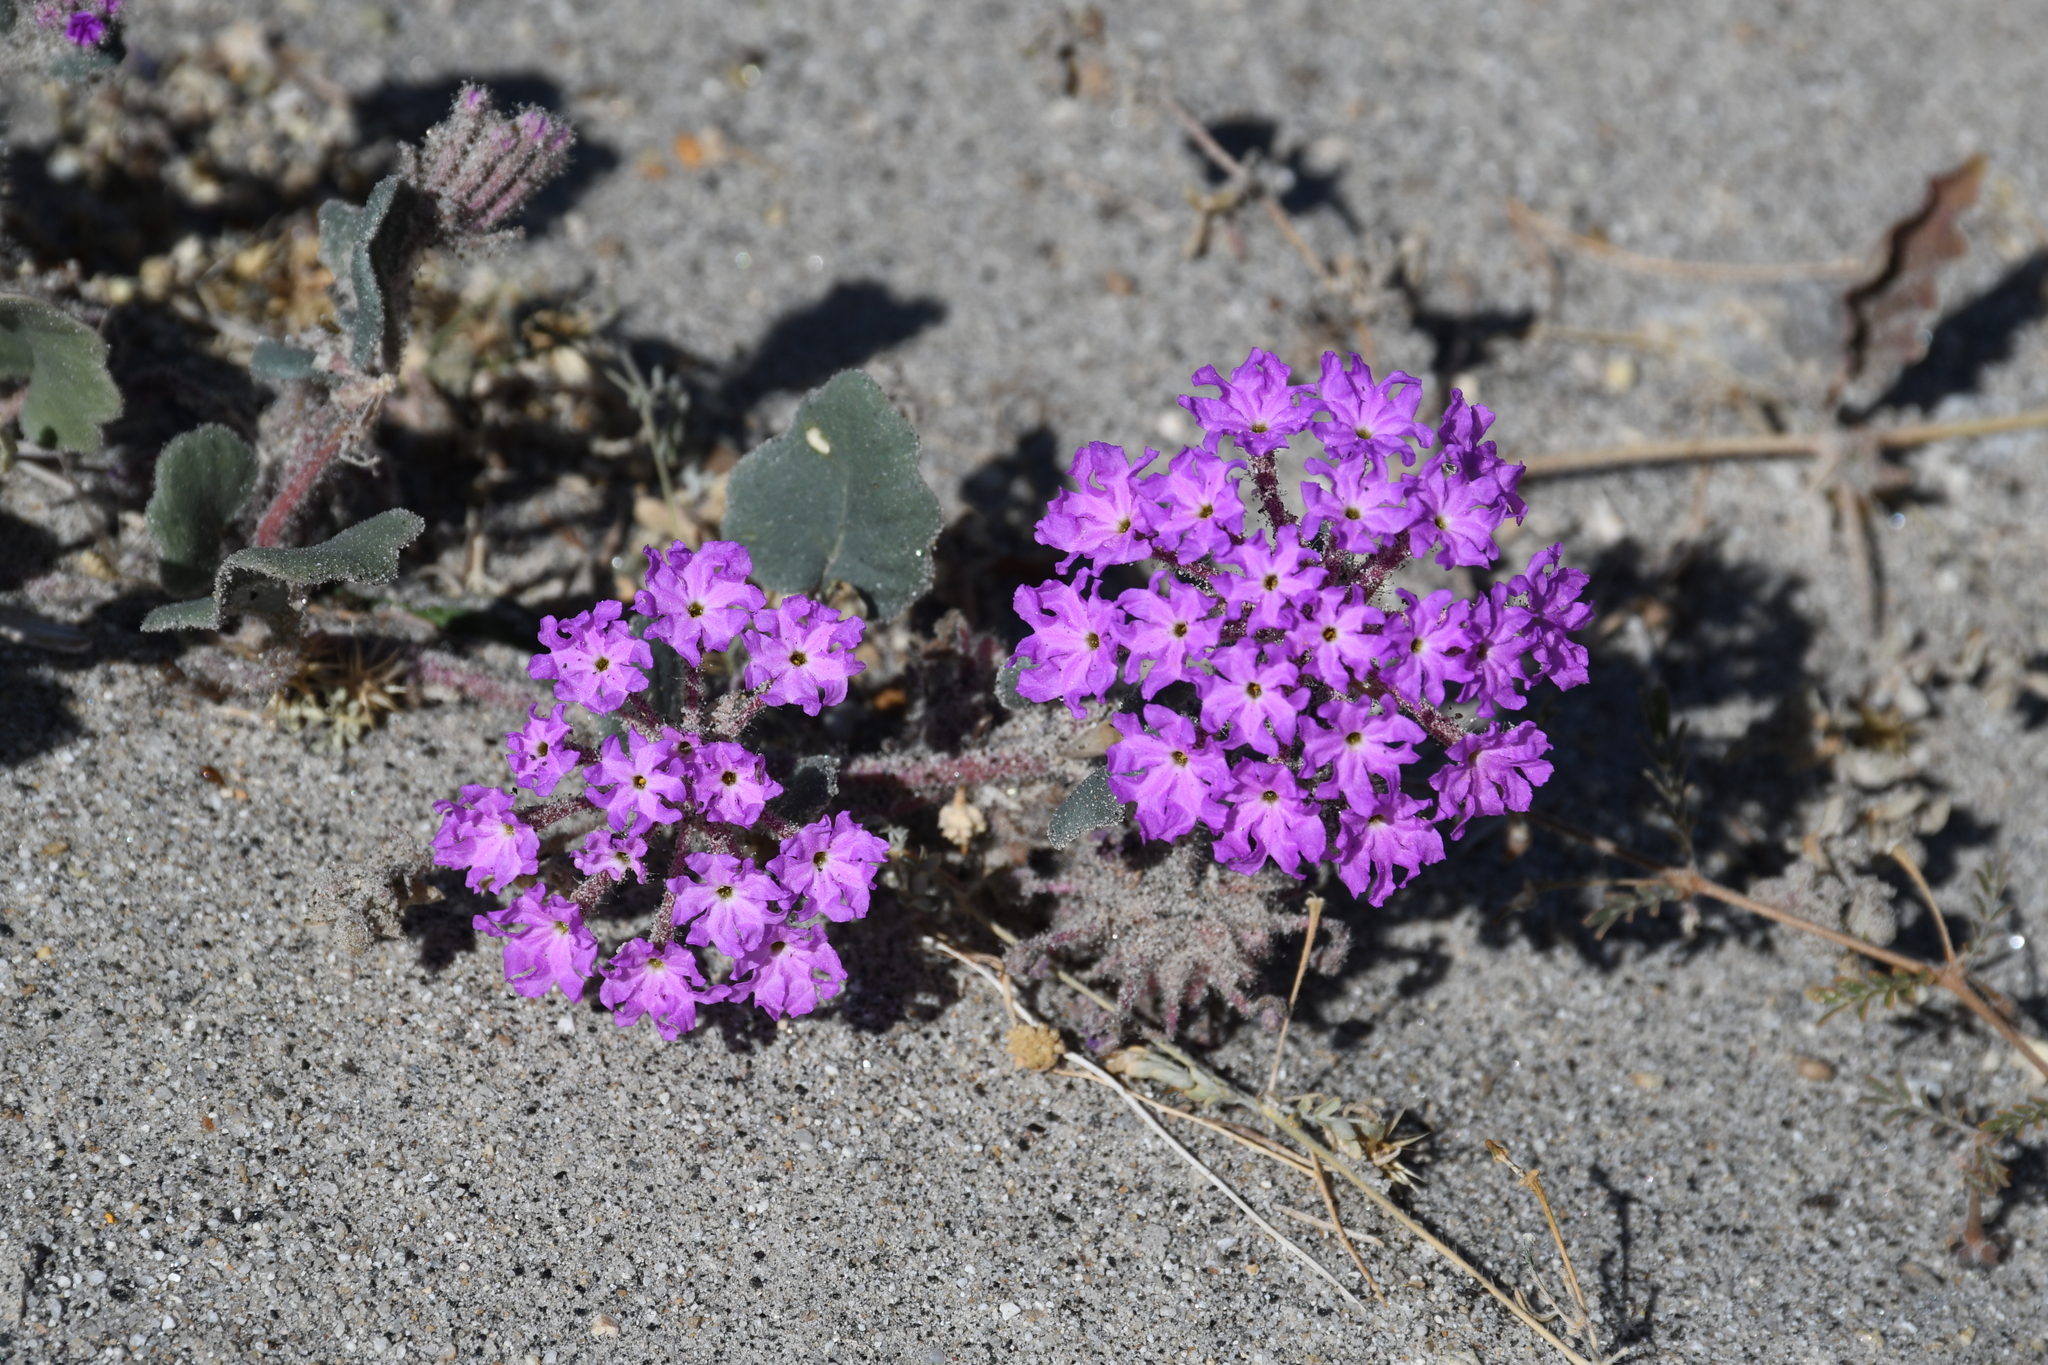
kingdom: Plantae
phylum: Tracheophyta
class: Magnoliopsida
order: Caryophyllales
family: Nyctaginaceae
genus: Abronia
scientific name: Abronia villosa
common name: Desert sand-verbena
